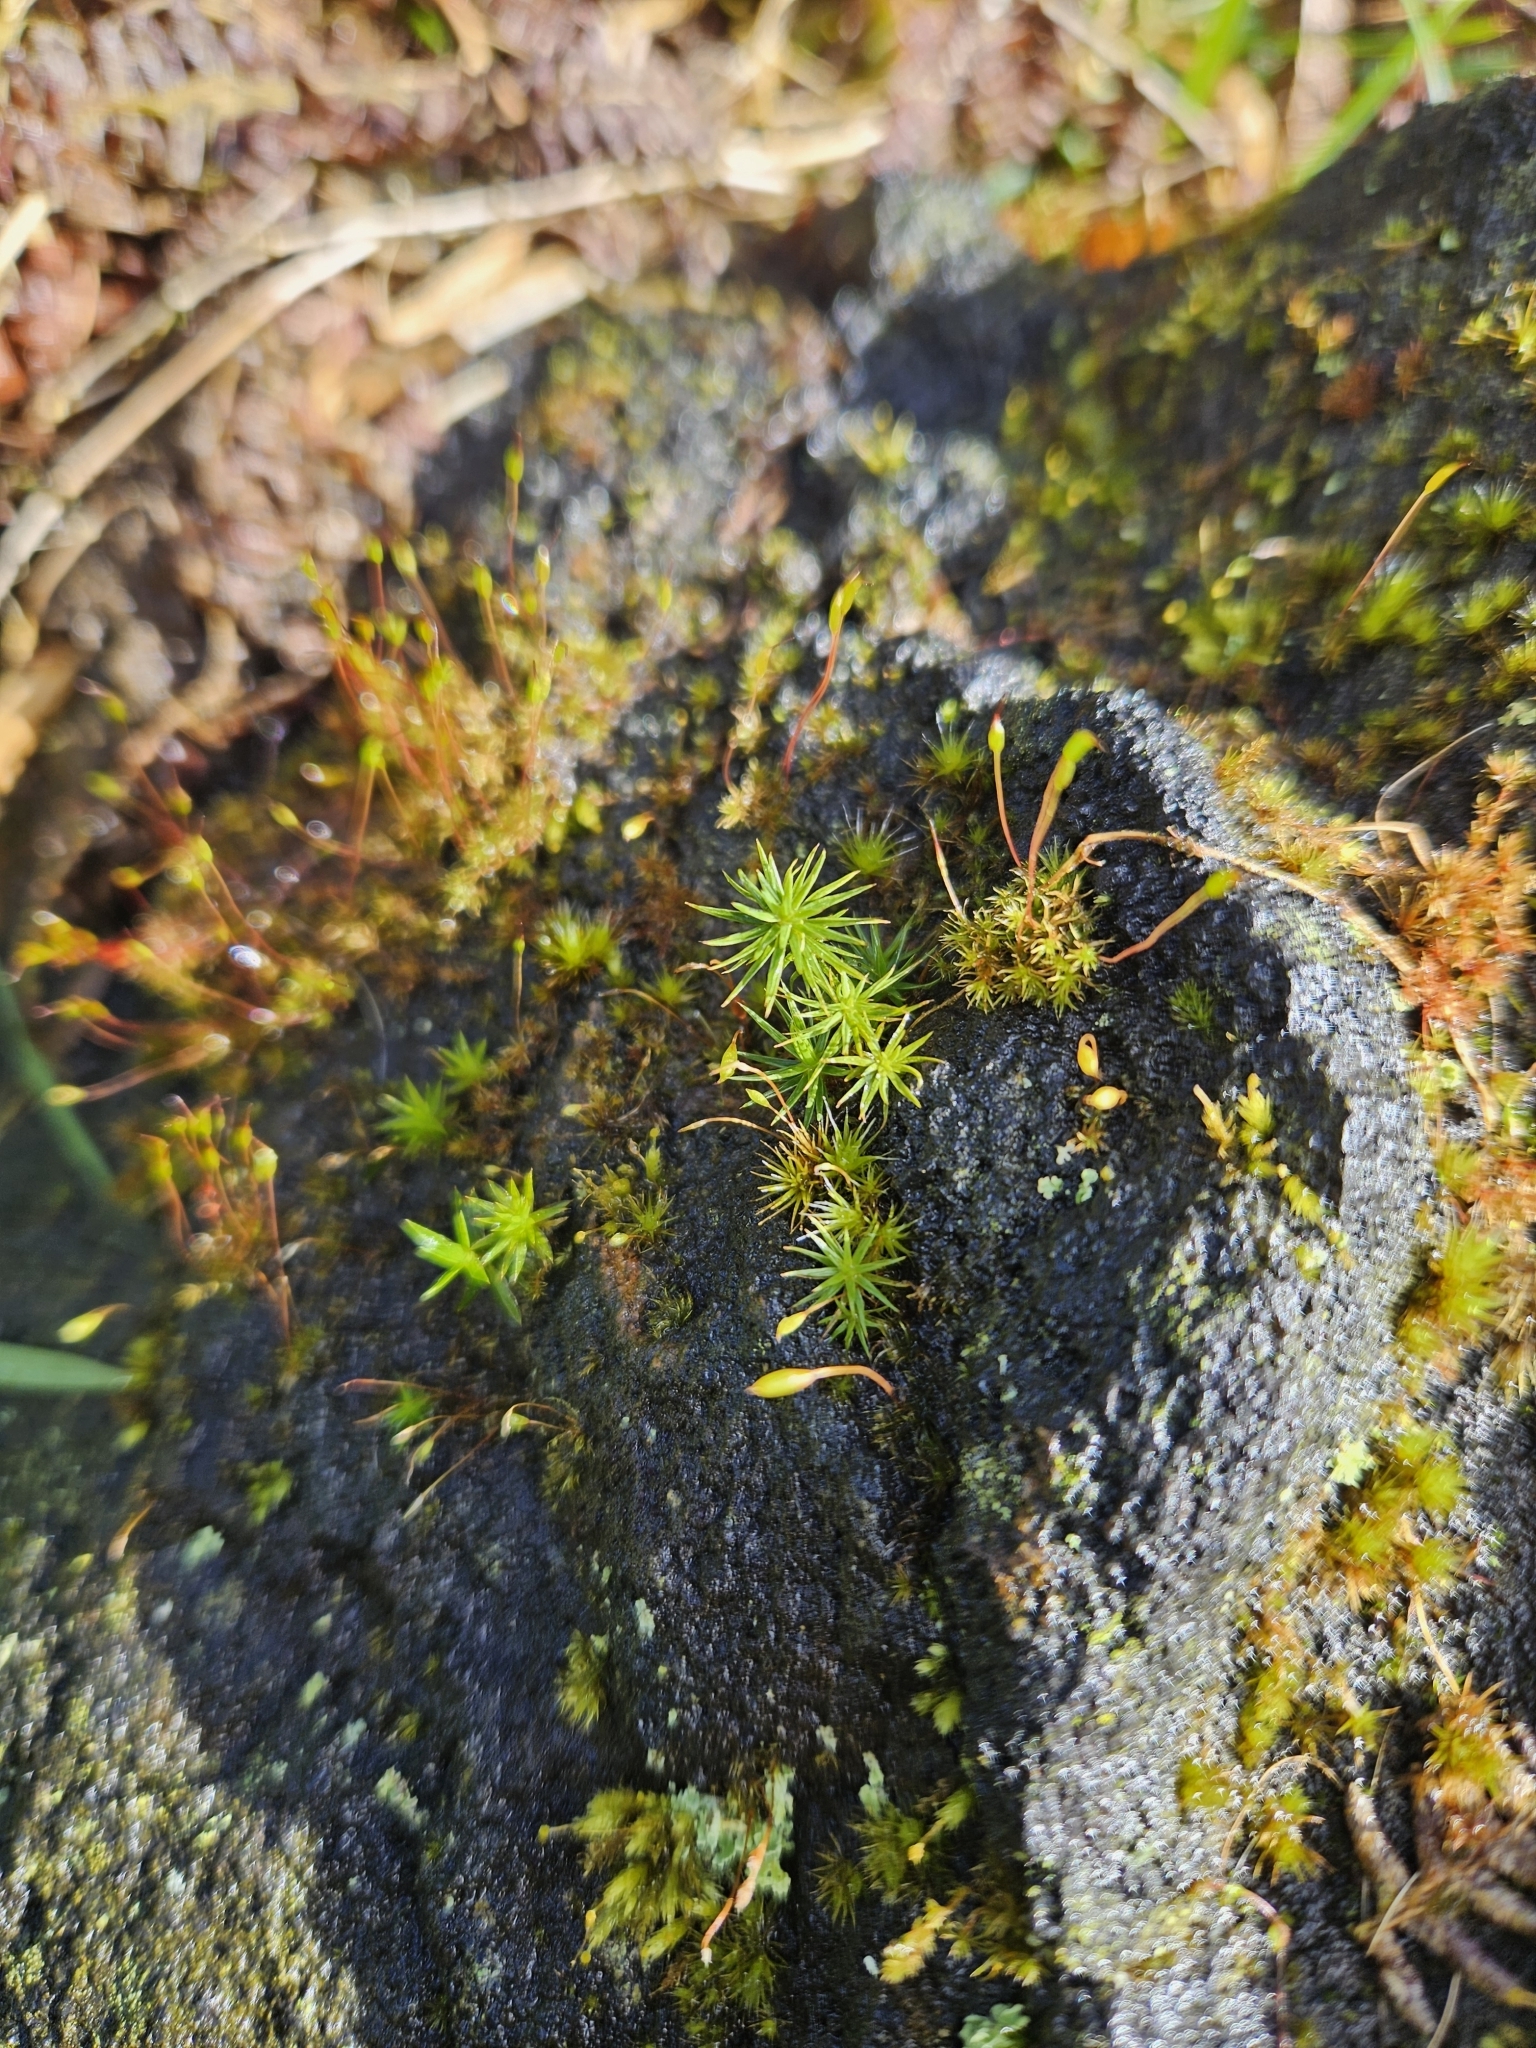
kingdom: Plantae
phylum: Bryophyta
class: Polytrichopsida
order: Polytrichales
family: Polytrichaceae
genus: Polytrichum
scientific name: Polytrichum juniperinum
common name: Juniper haircap moss
